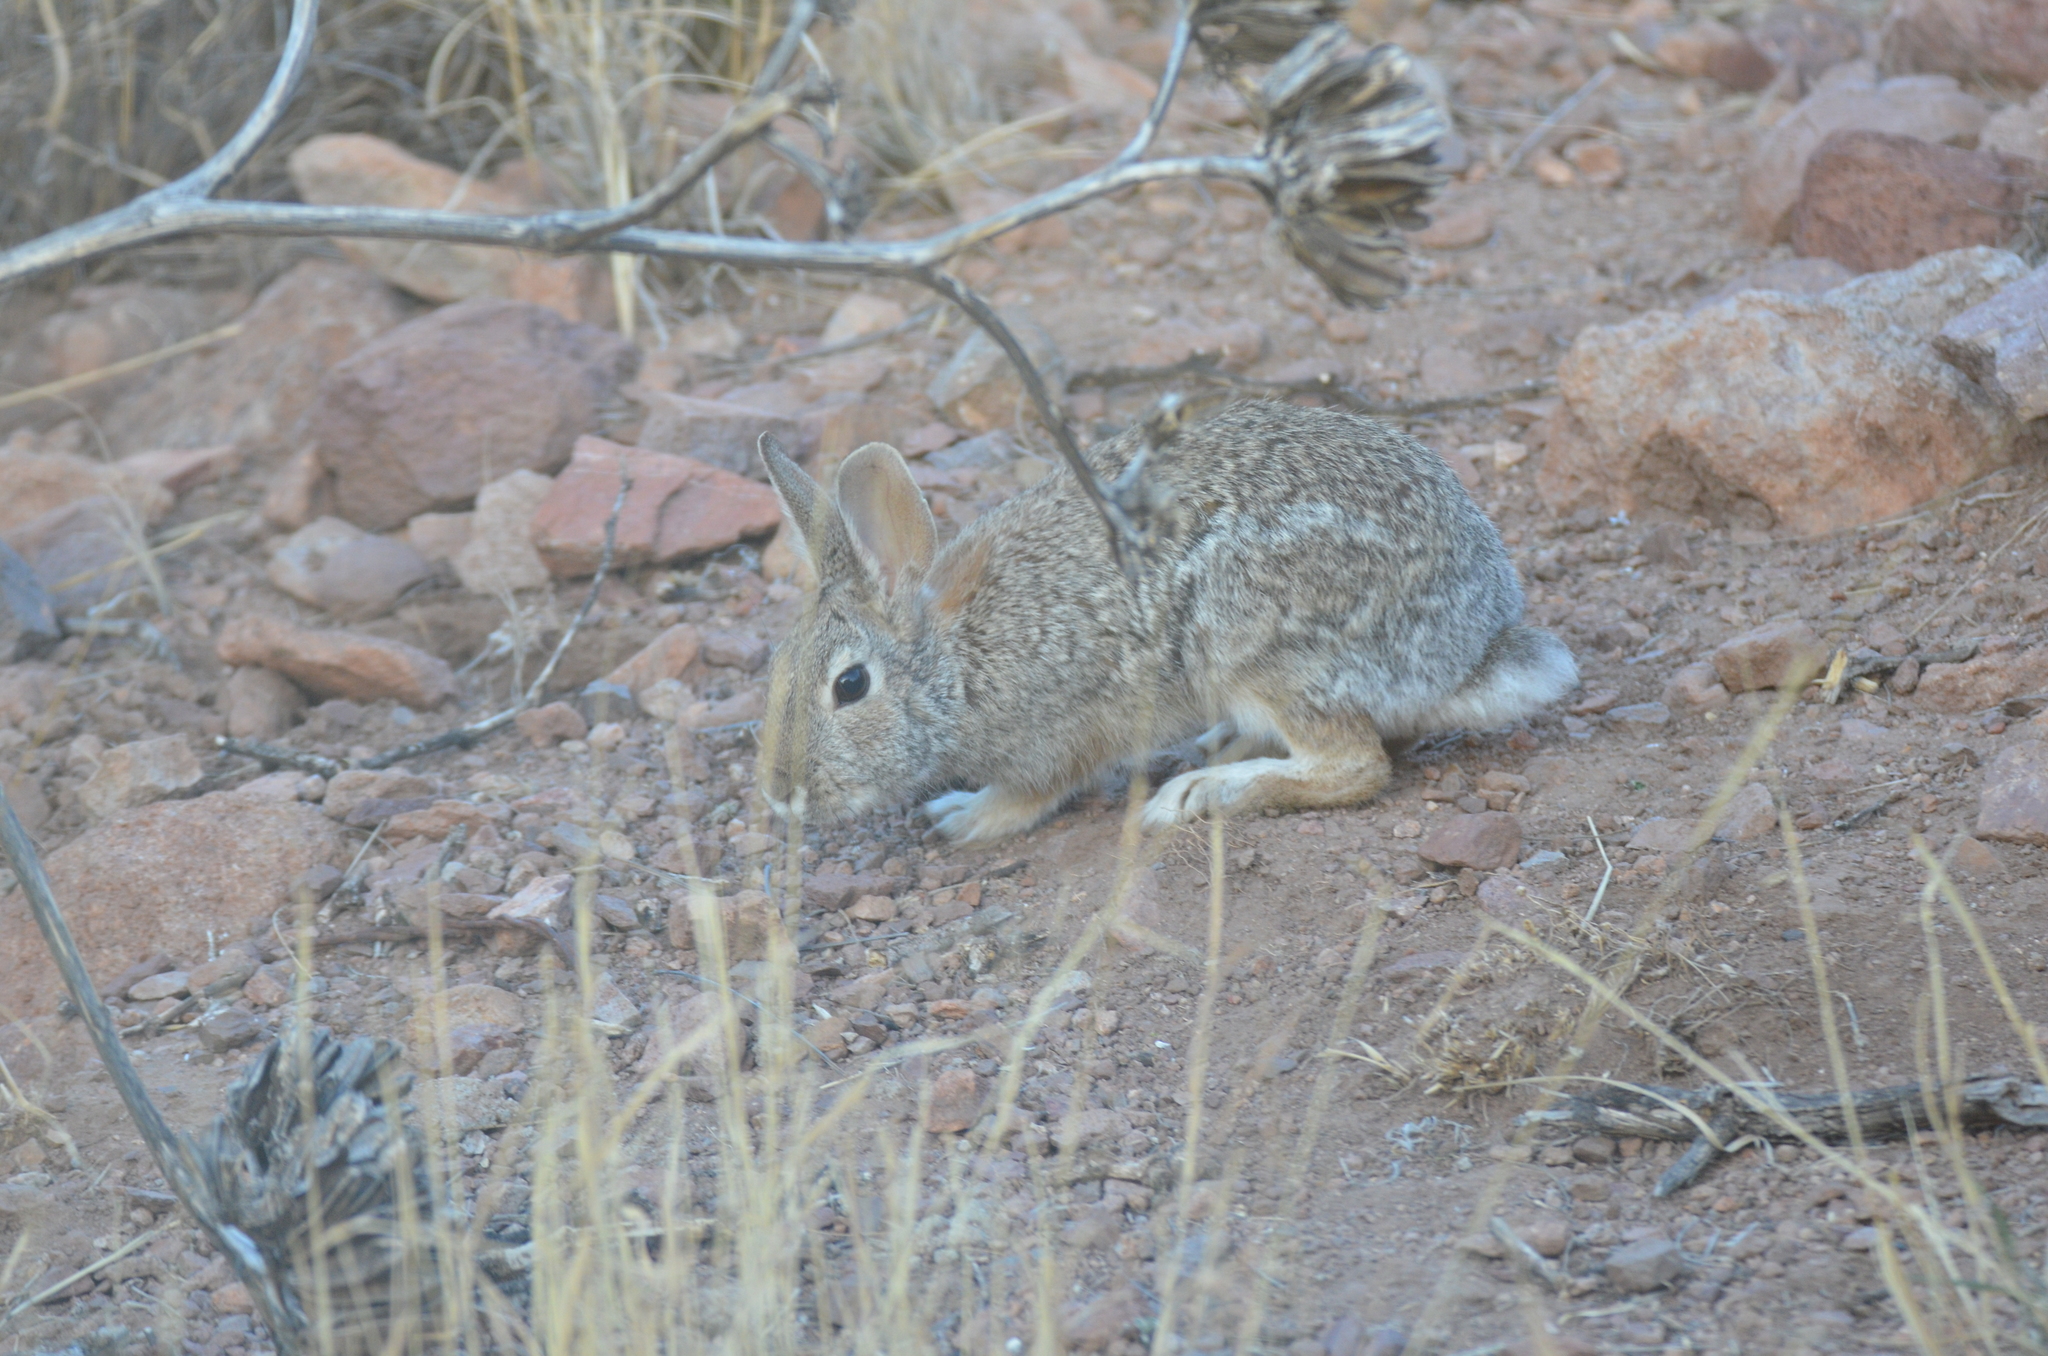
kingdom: Animalia
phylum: Chordata
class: Mammalia
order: Lagomorpha
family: Leporidae
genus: Sylvilagus
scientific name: Sylvilagus audubonii
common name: Desert cottontail
